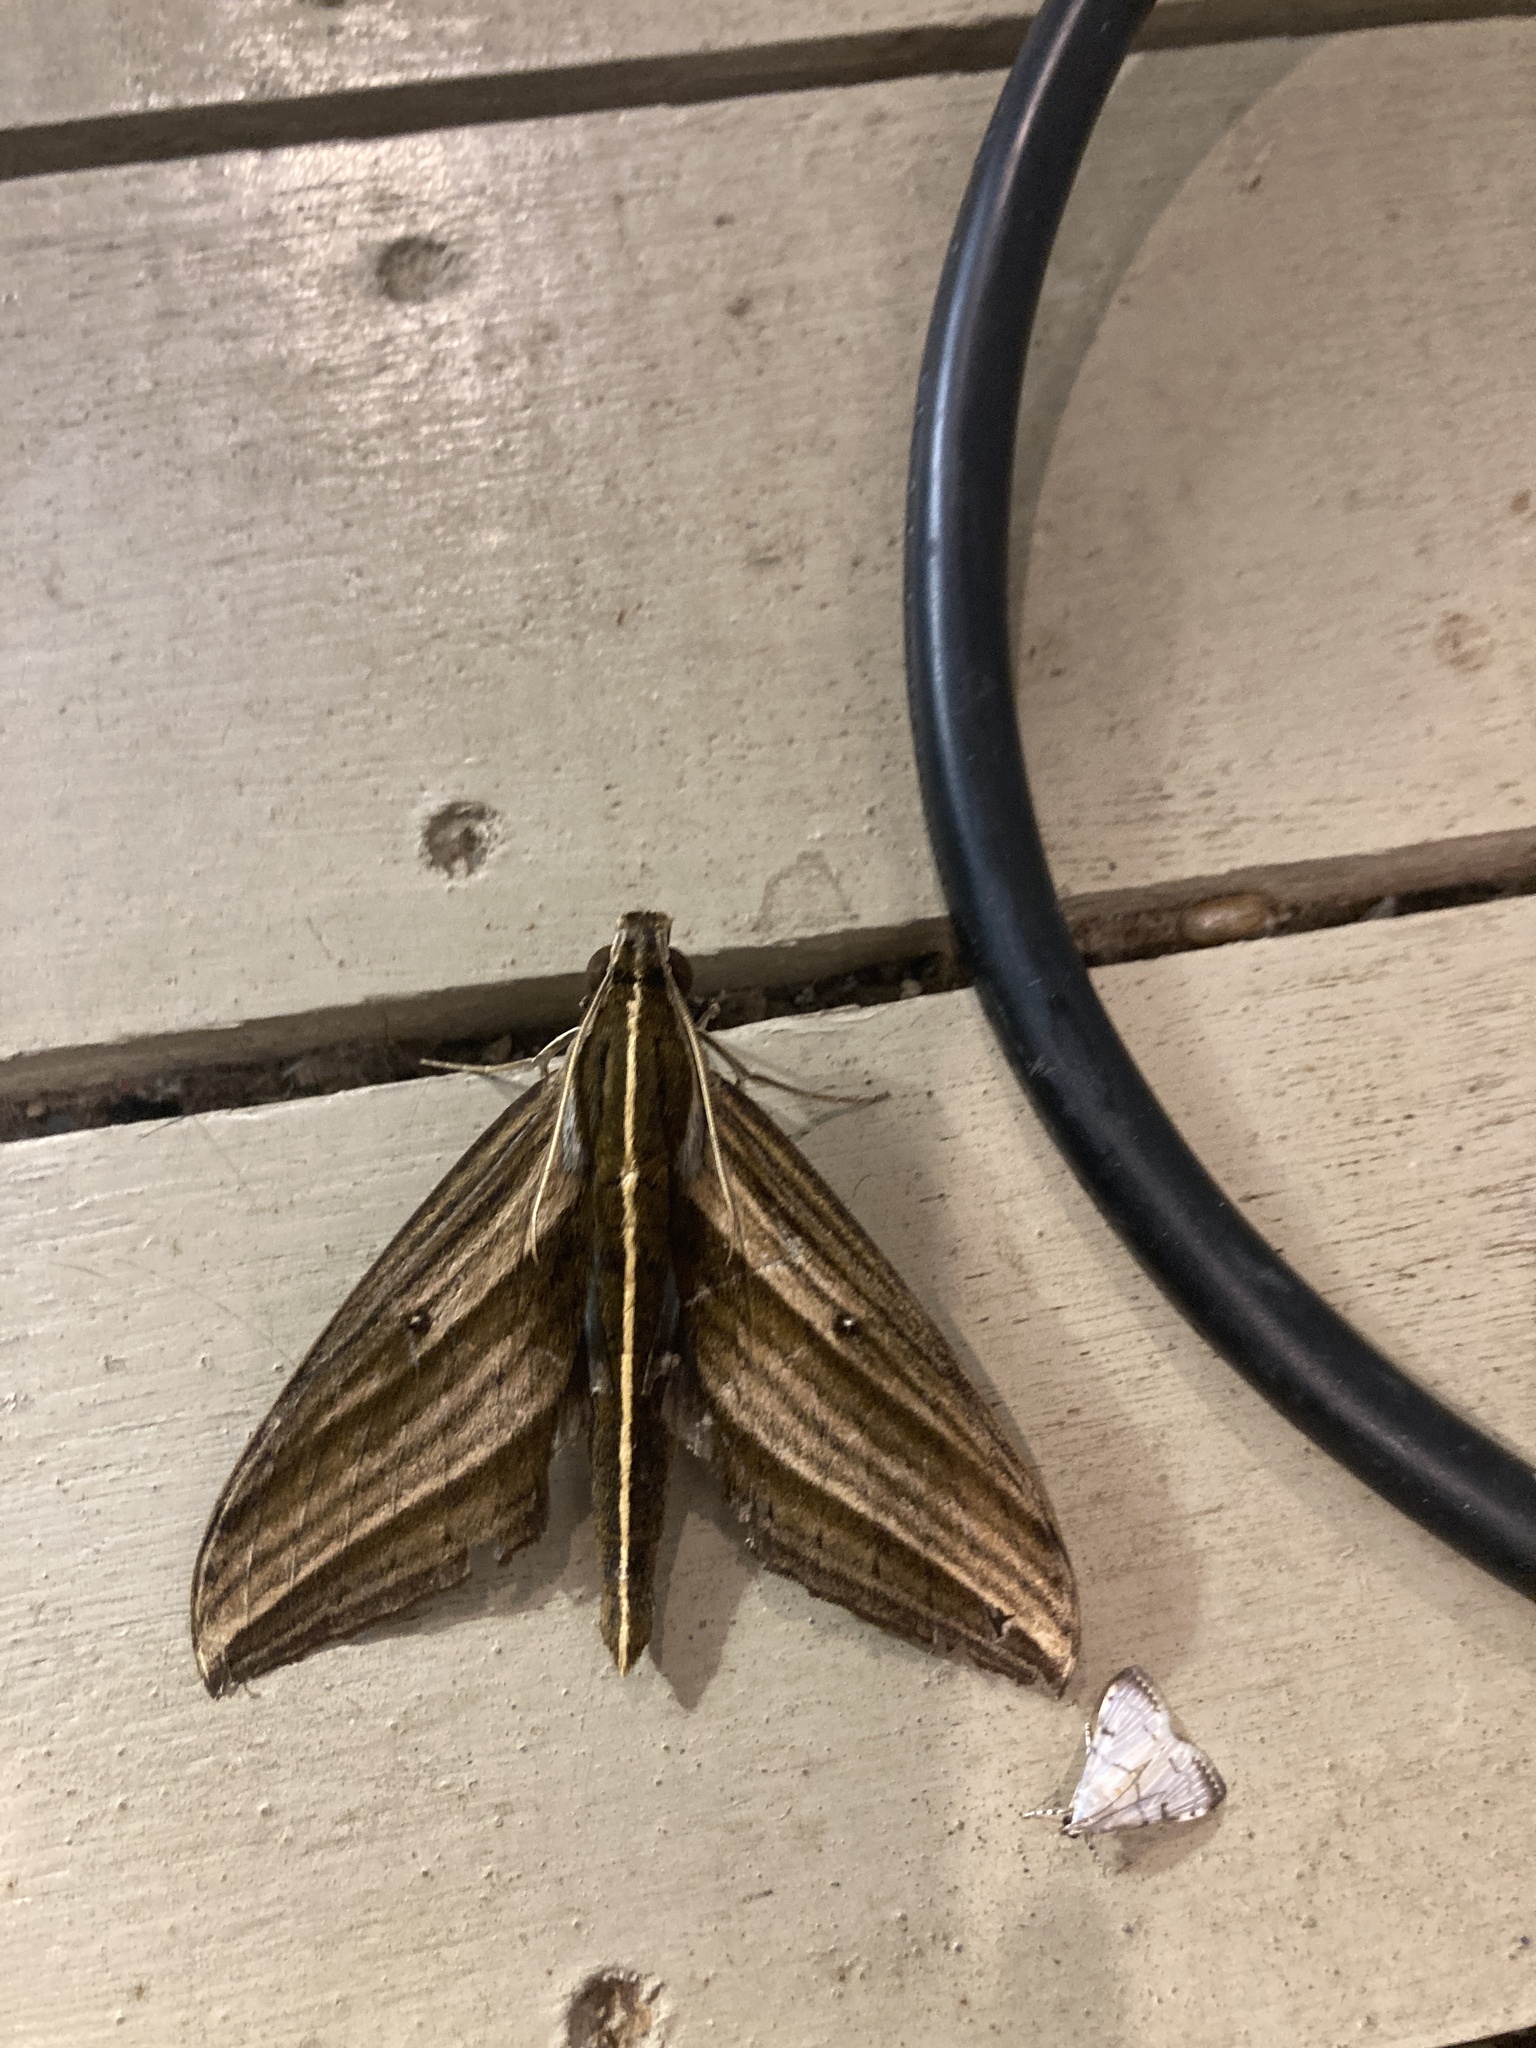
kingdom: Animalia
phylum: Arthropoda
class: Insecta
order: Lepidoptera
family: Sphingidae
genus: Elibia
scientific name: Elibia dolichus
